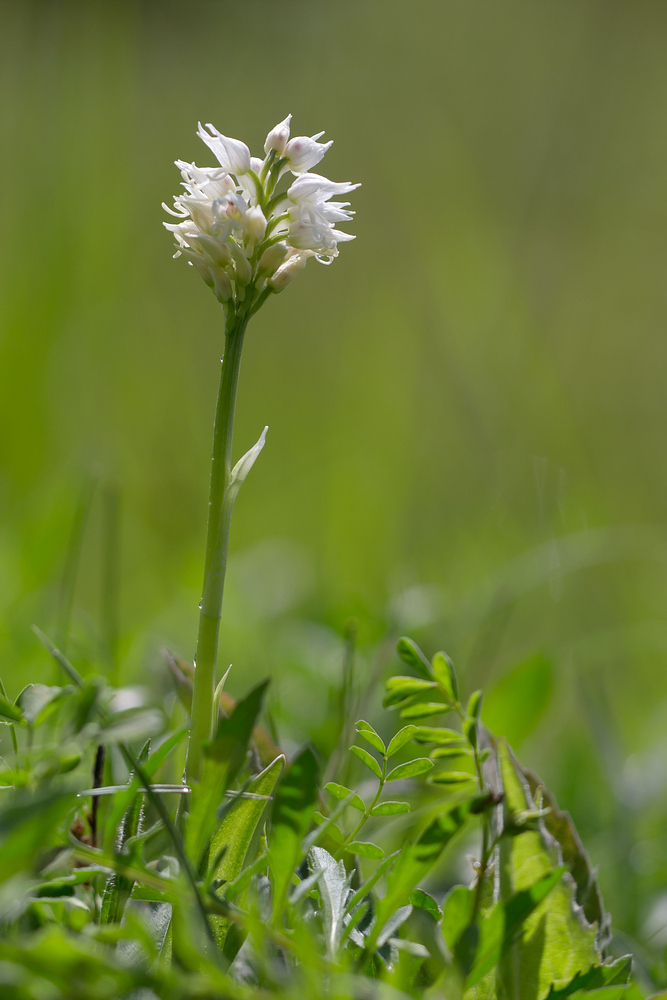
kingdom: Plantae
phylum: Tracheophyta
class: Liliopsida
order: Asparagales
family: Orchidaceae
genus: Orchis
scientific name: Orchis simia
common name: Monkey orchid
